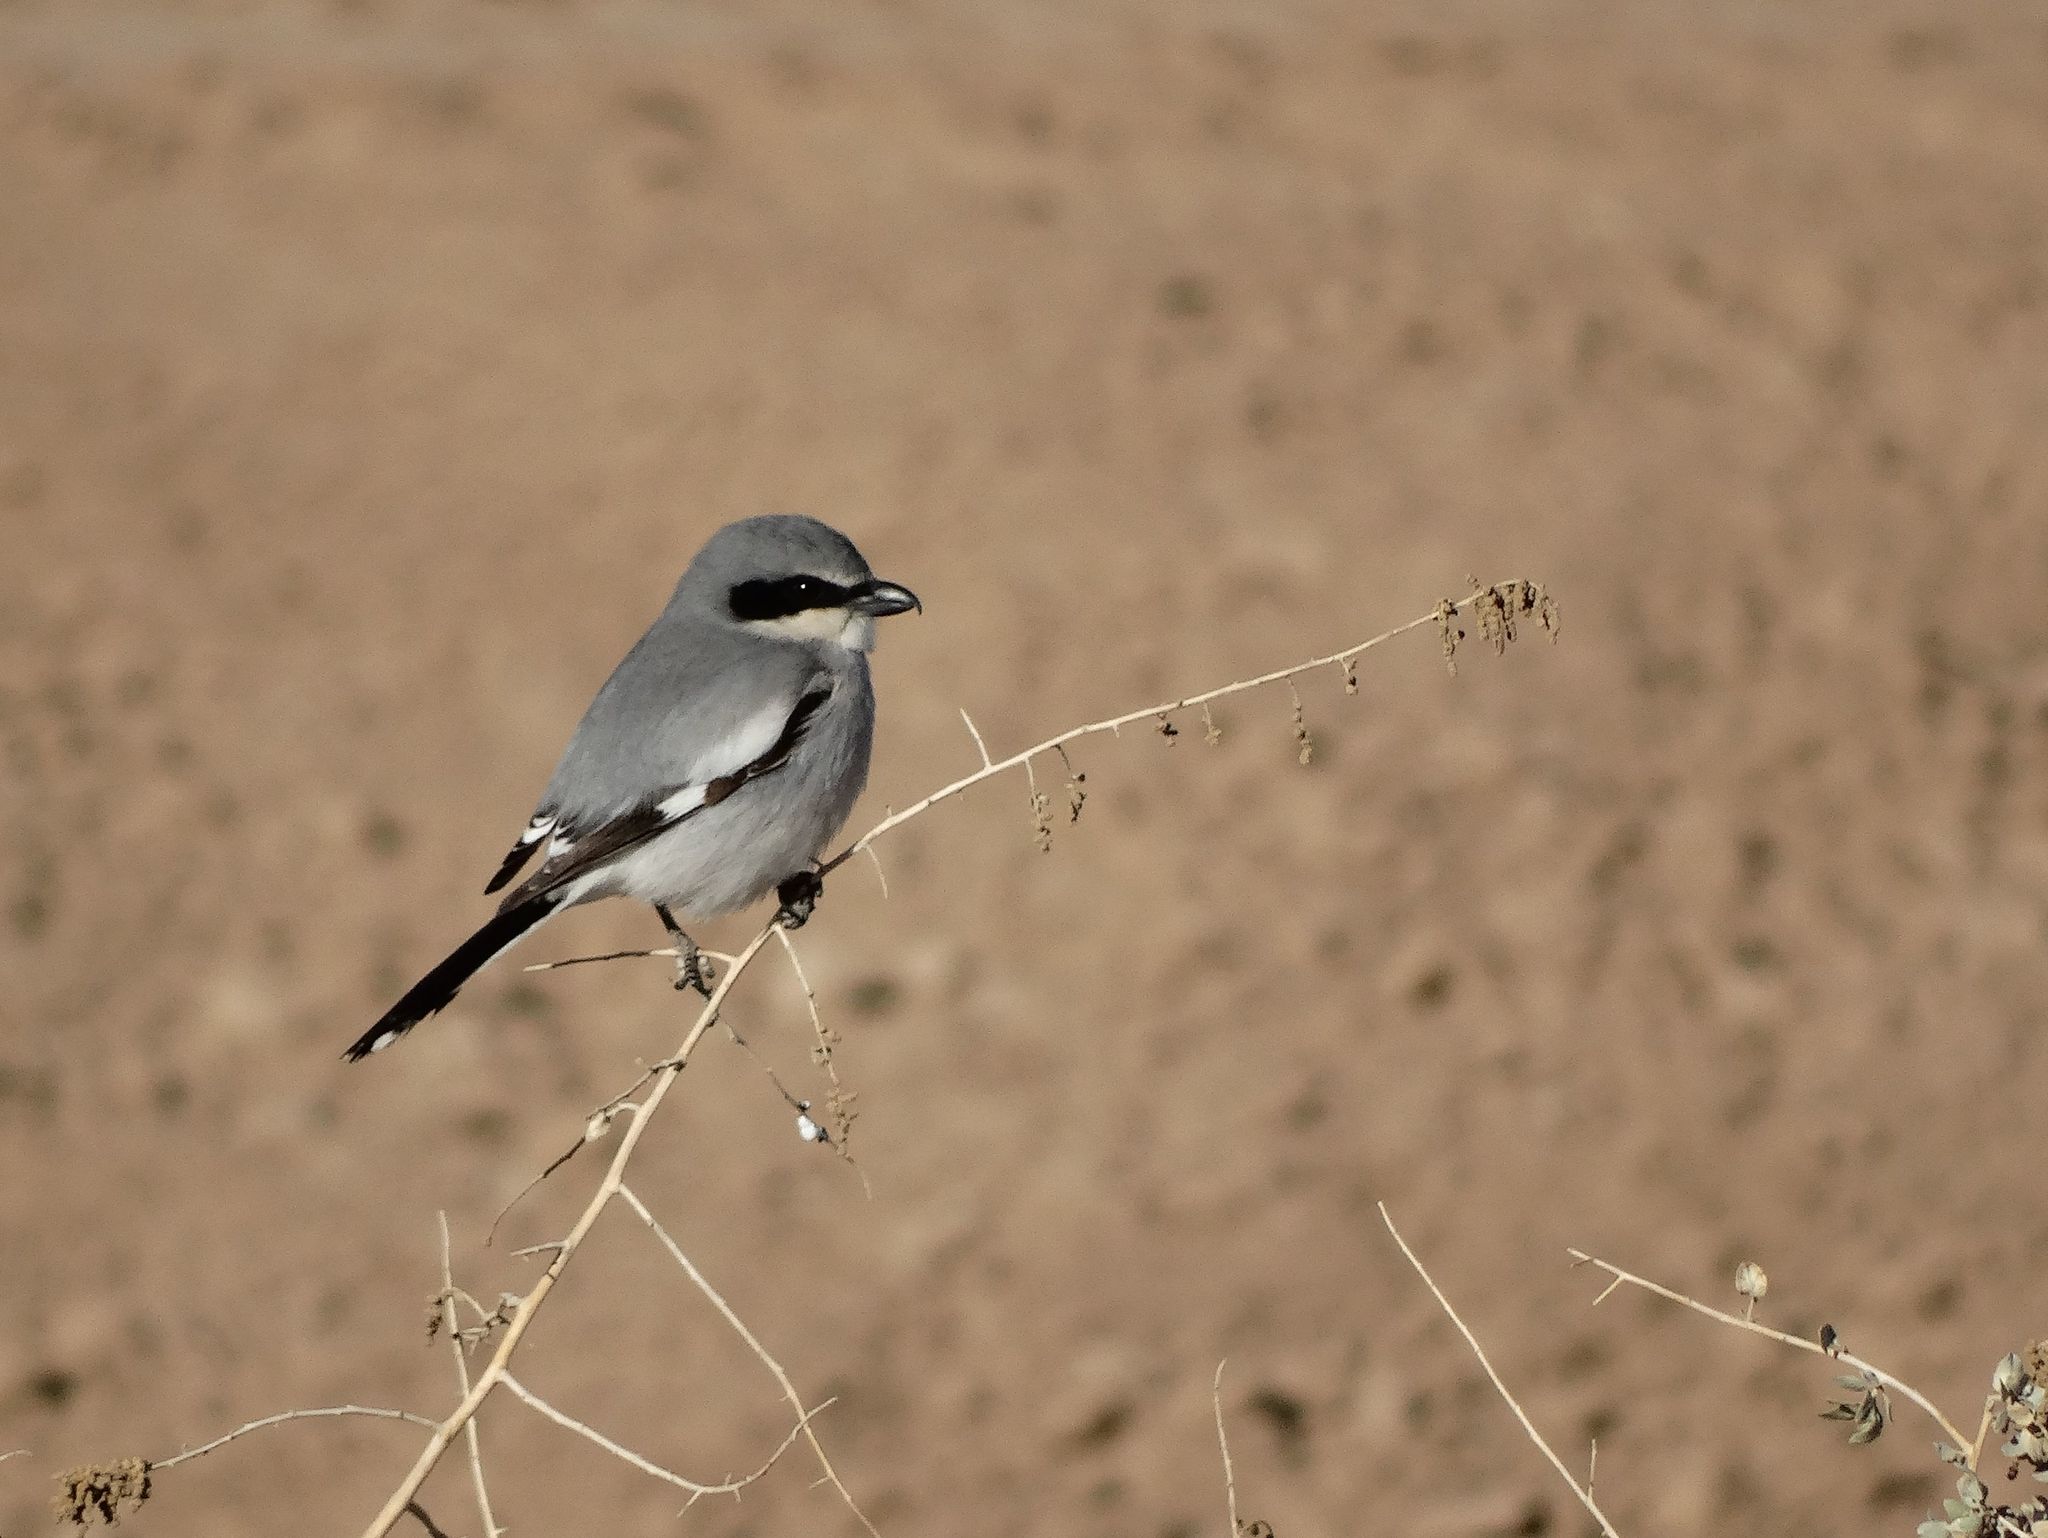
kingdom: Animalia
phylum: Chordata
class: Aves
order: Passeriformes
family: Laniidae
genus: Lanius
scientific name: Lanius ludovicianus
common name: Loggerhead shrike
